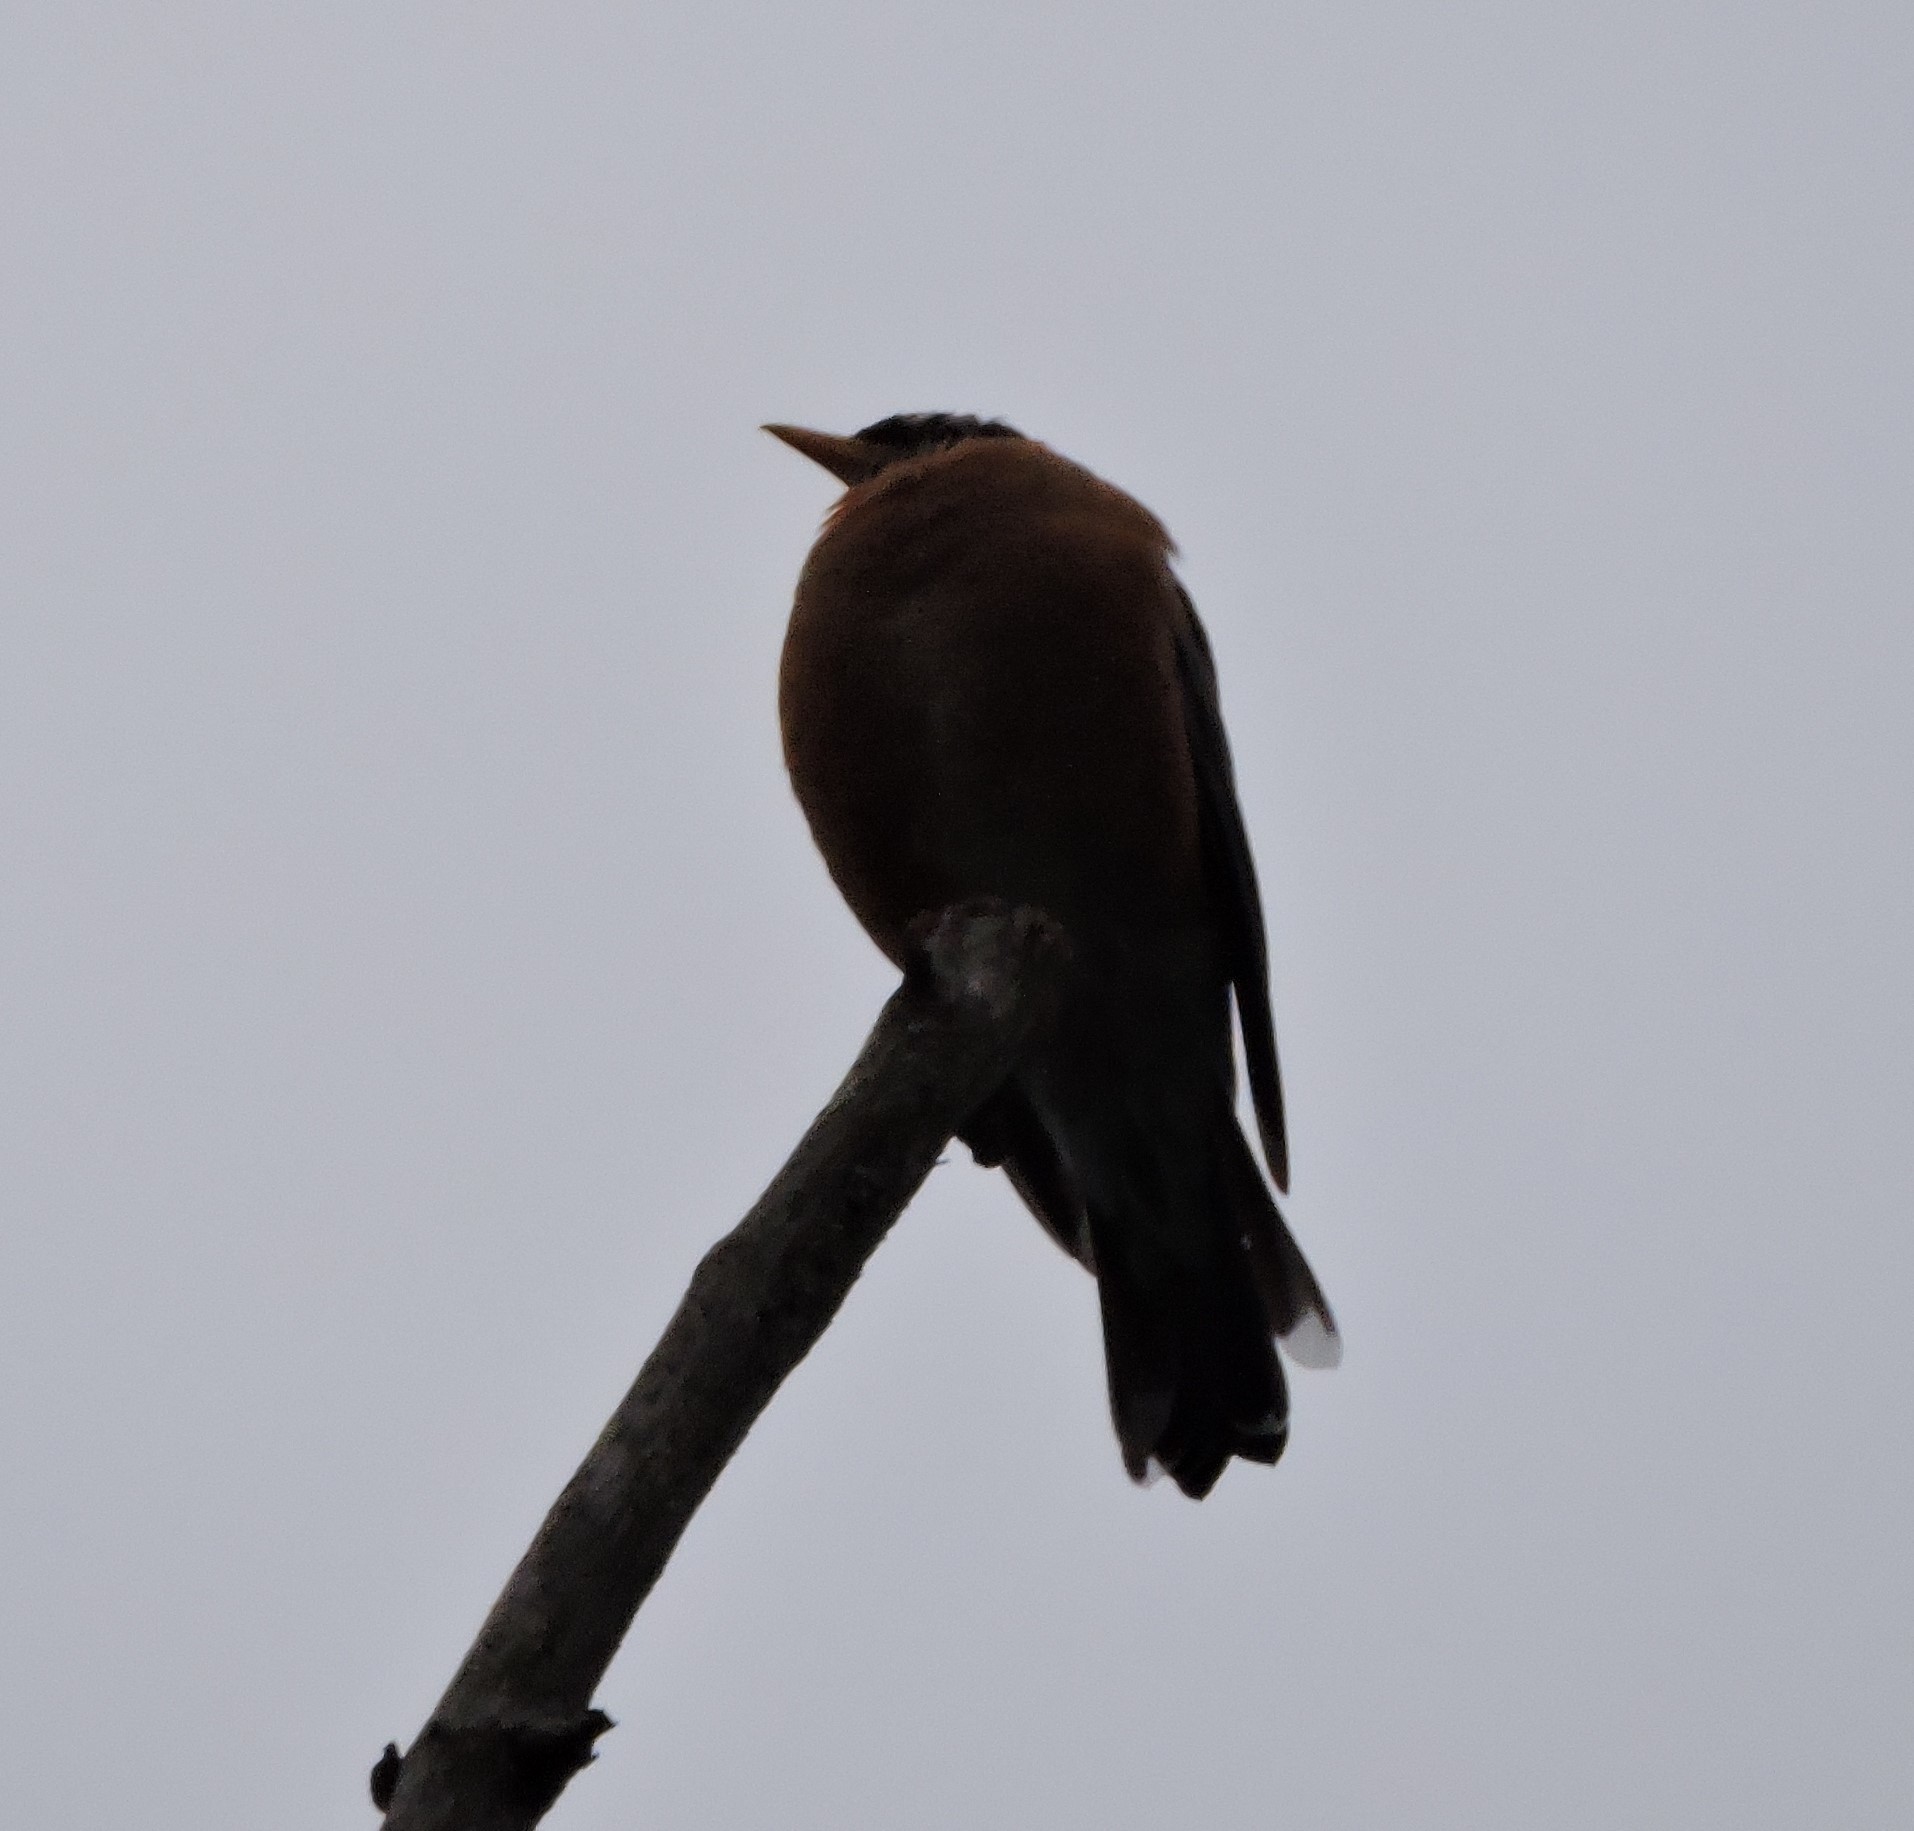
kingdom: Animalia
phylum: Chordata
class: Aves
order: Passeriformes
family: Turdidae
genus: Turdus
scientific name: Turdus migratorius
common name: American robin
